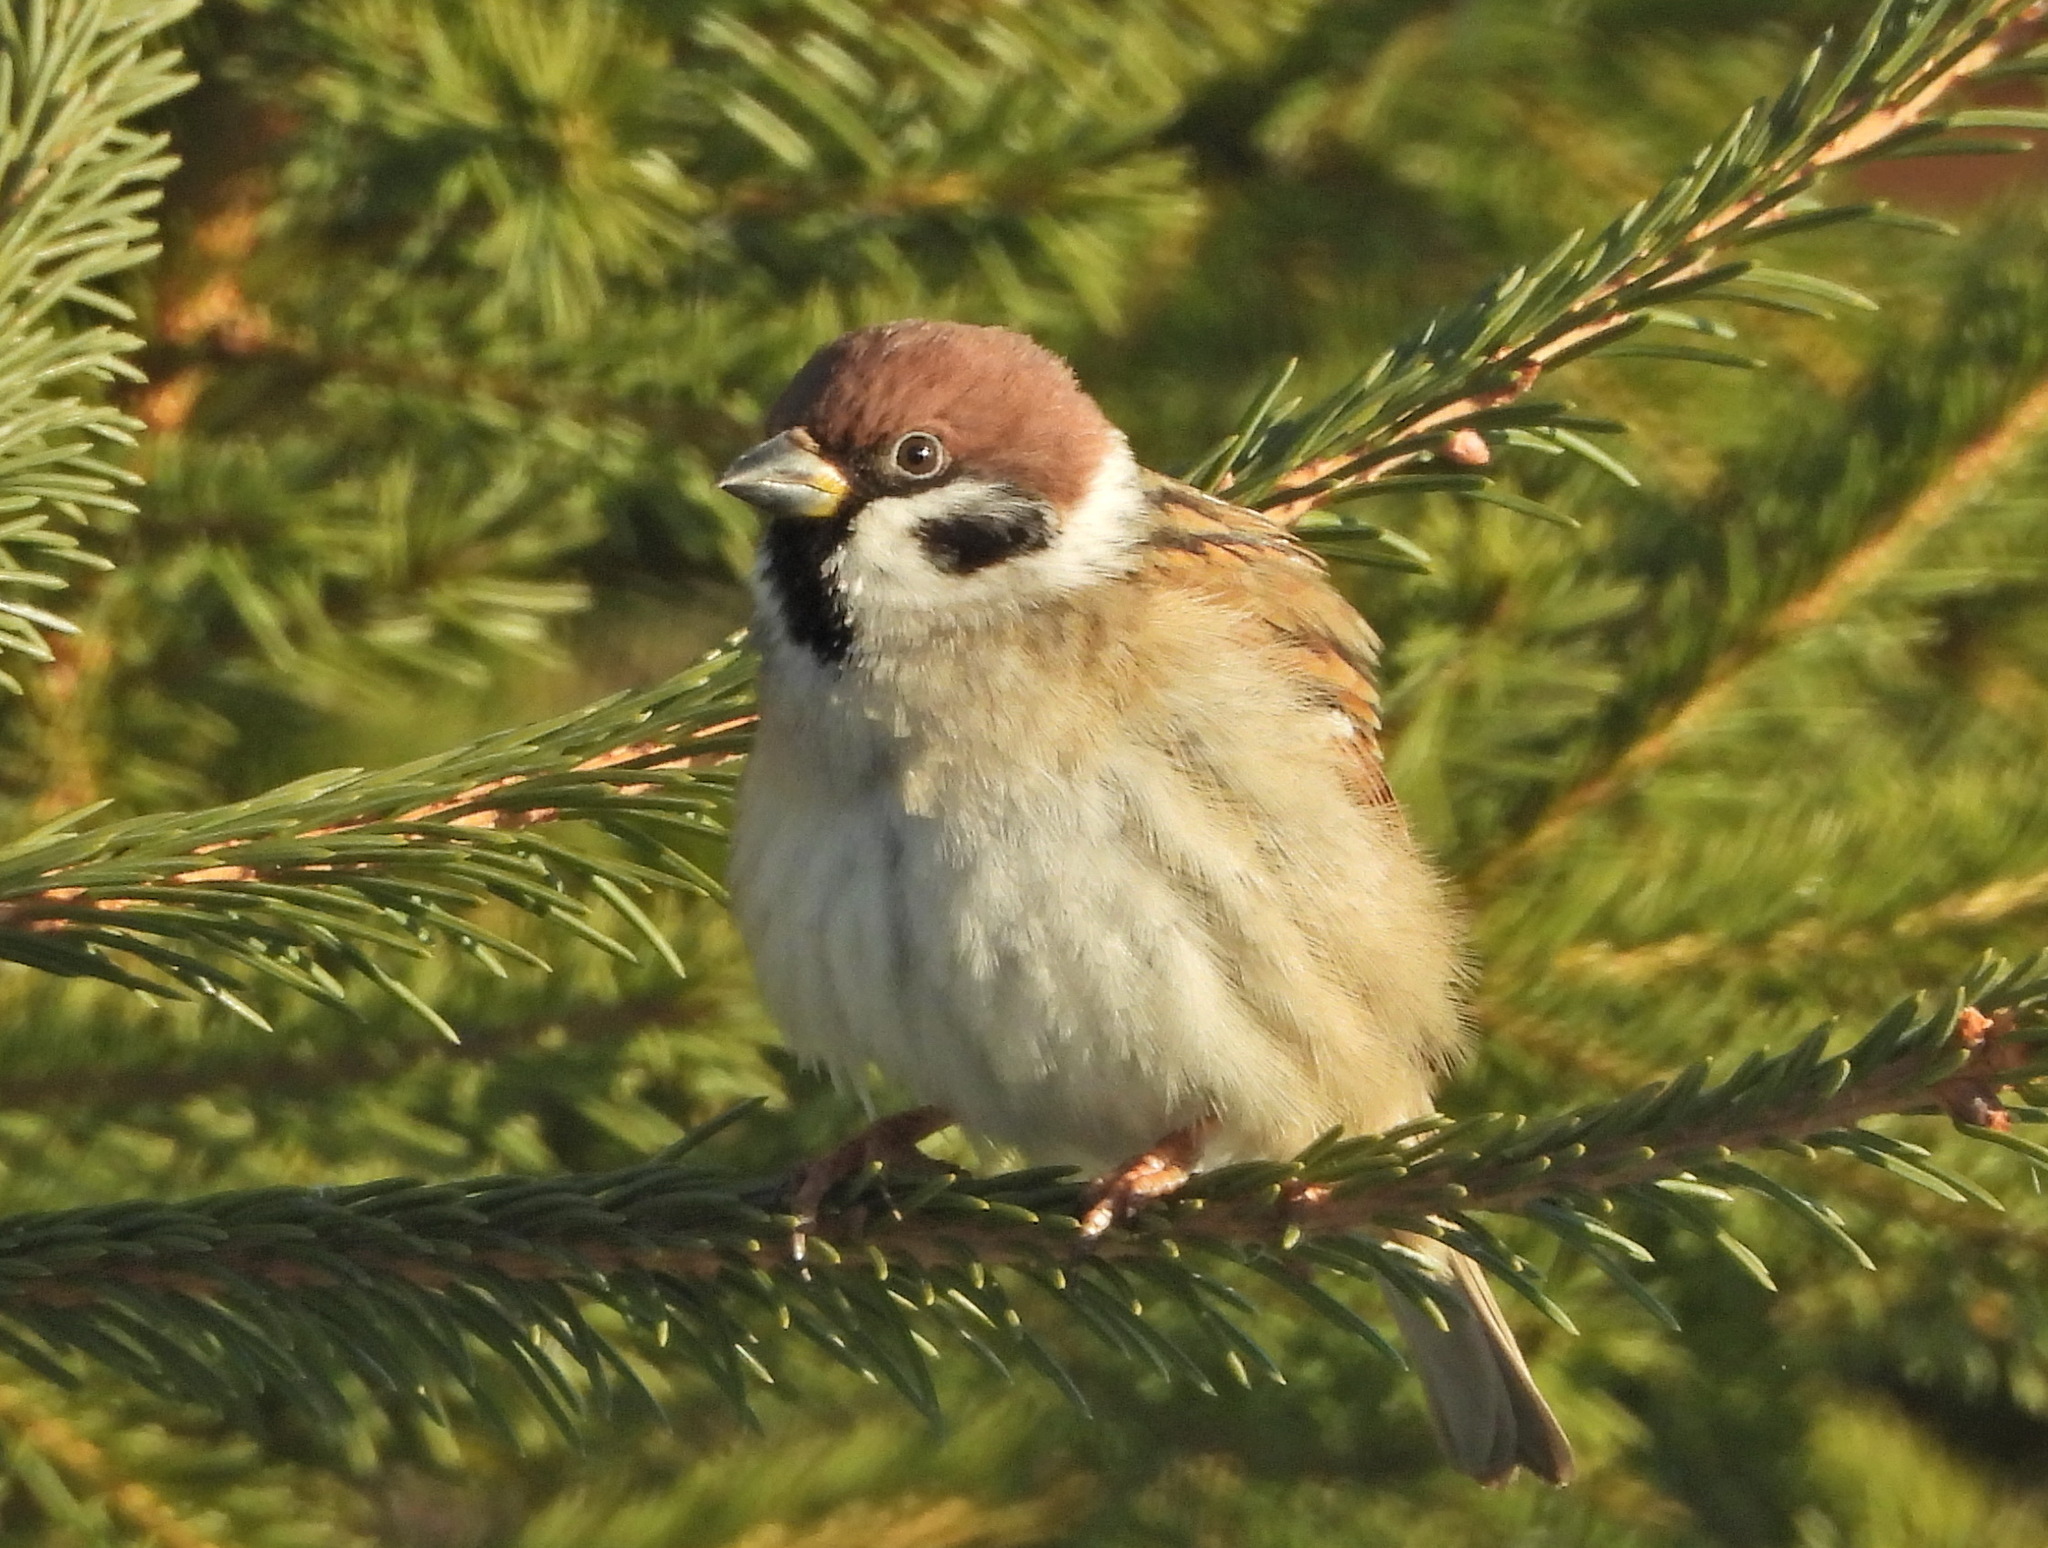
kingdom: Animalia
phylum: Chordata
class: Aves
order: Passeriformes
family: Passeridae
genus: Passer
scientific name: Passer montanus
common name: Eurasian tree sparrow
